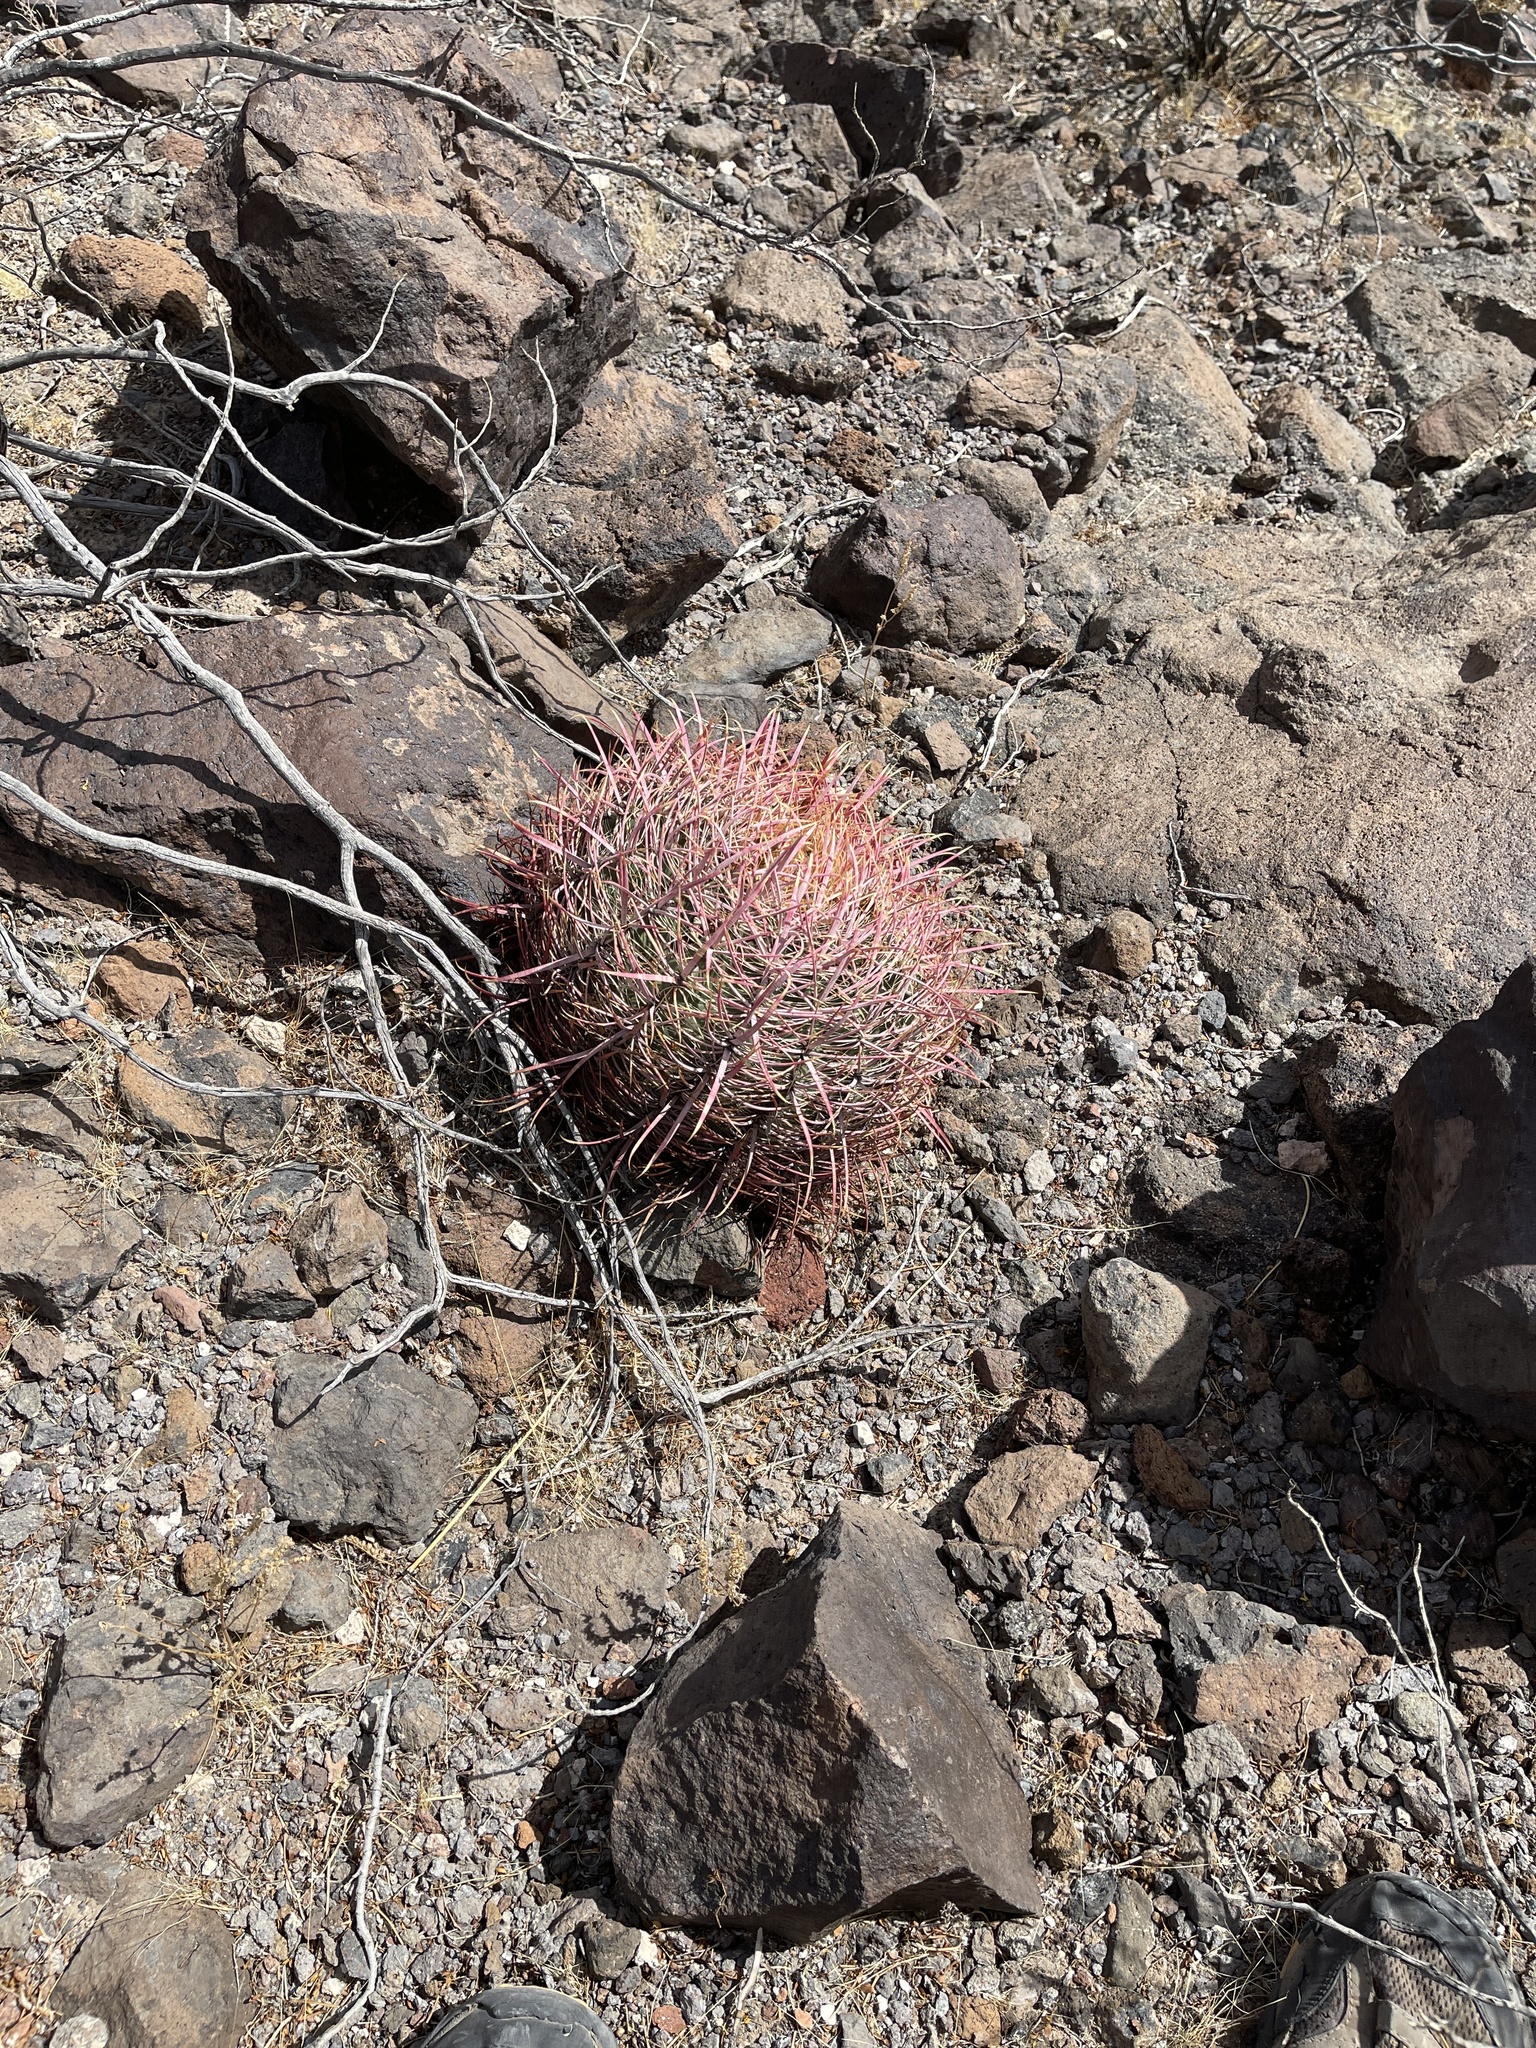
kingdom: Plantae
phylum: Tracheophyta
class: Magnoliopsida
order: Caryophyllales
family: Cactaceae
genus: Ferocactus
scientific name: Ferocactus cylindraceus
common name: California barrel cactus
